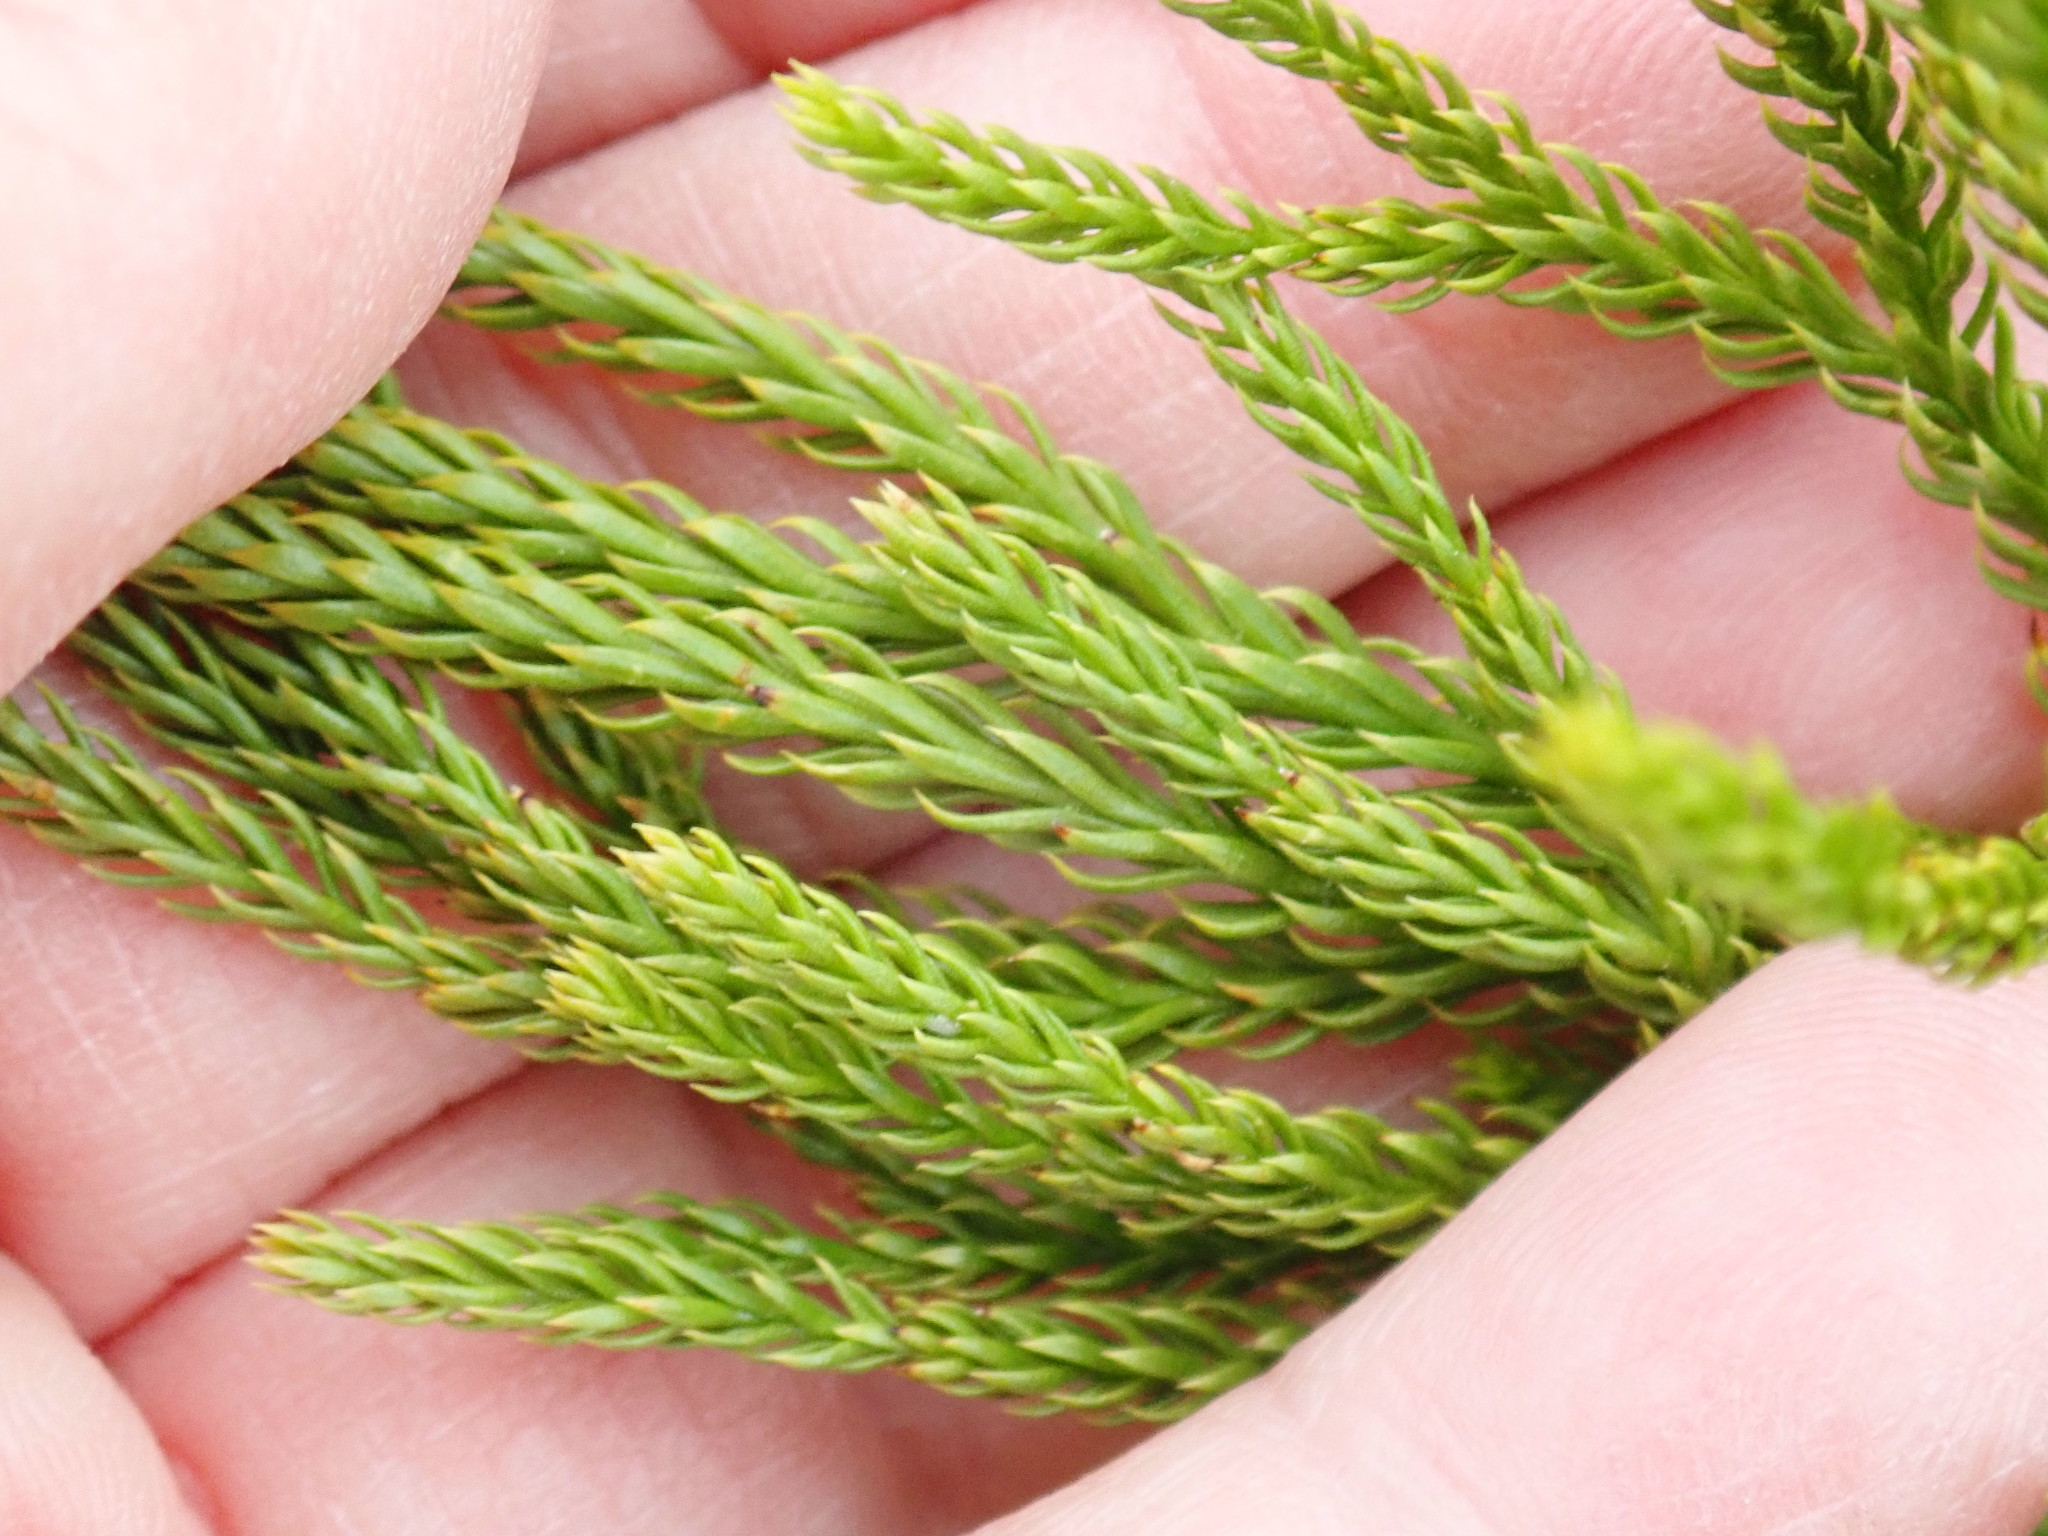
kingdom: Plantae
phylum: Tracheophyta
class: Lycopodiopsida
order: Lycopodiales
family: Lycopodiaceae
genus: Dendrolycopodium
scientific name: Dendrolycopodium hickeyi
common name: Hickey's clubmoss
